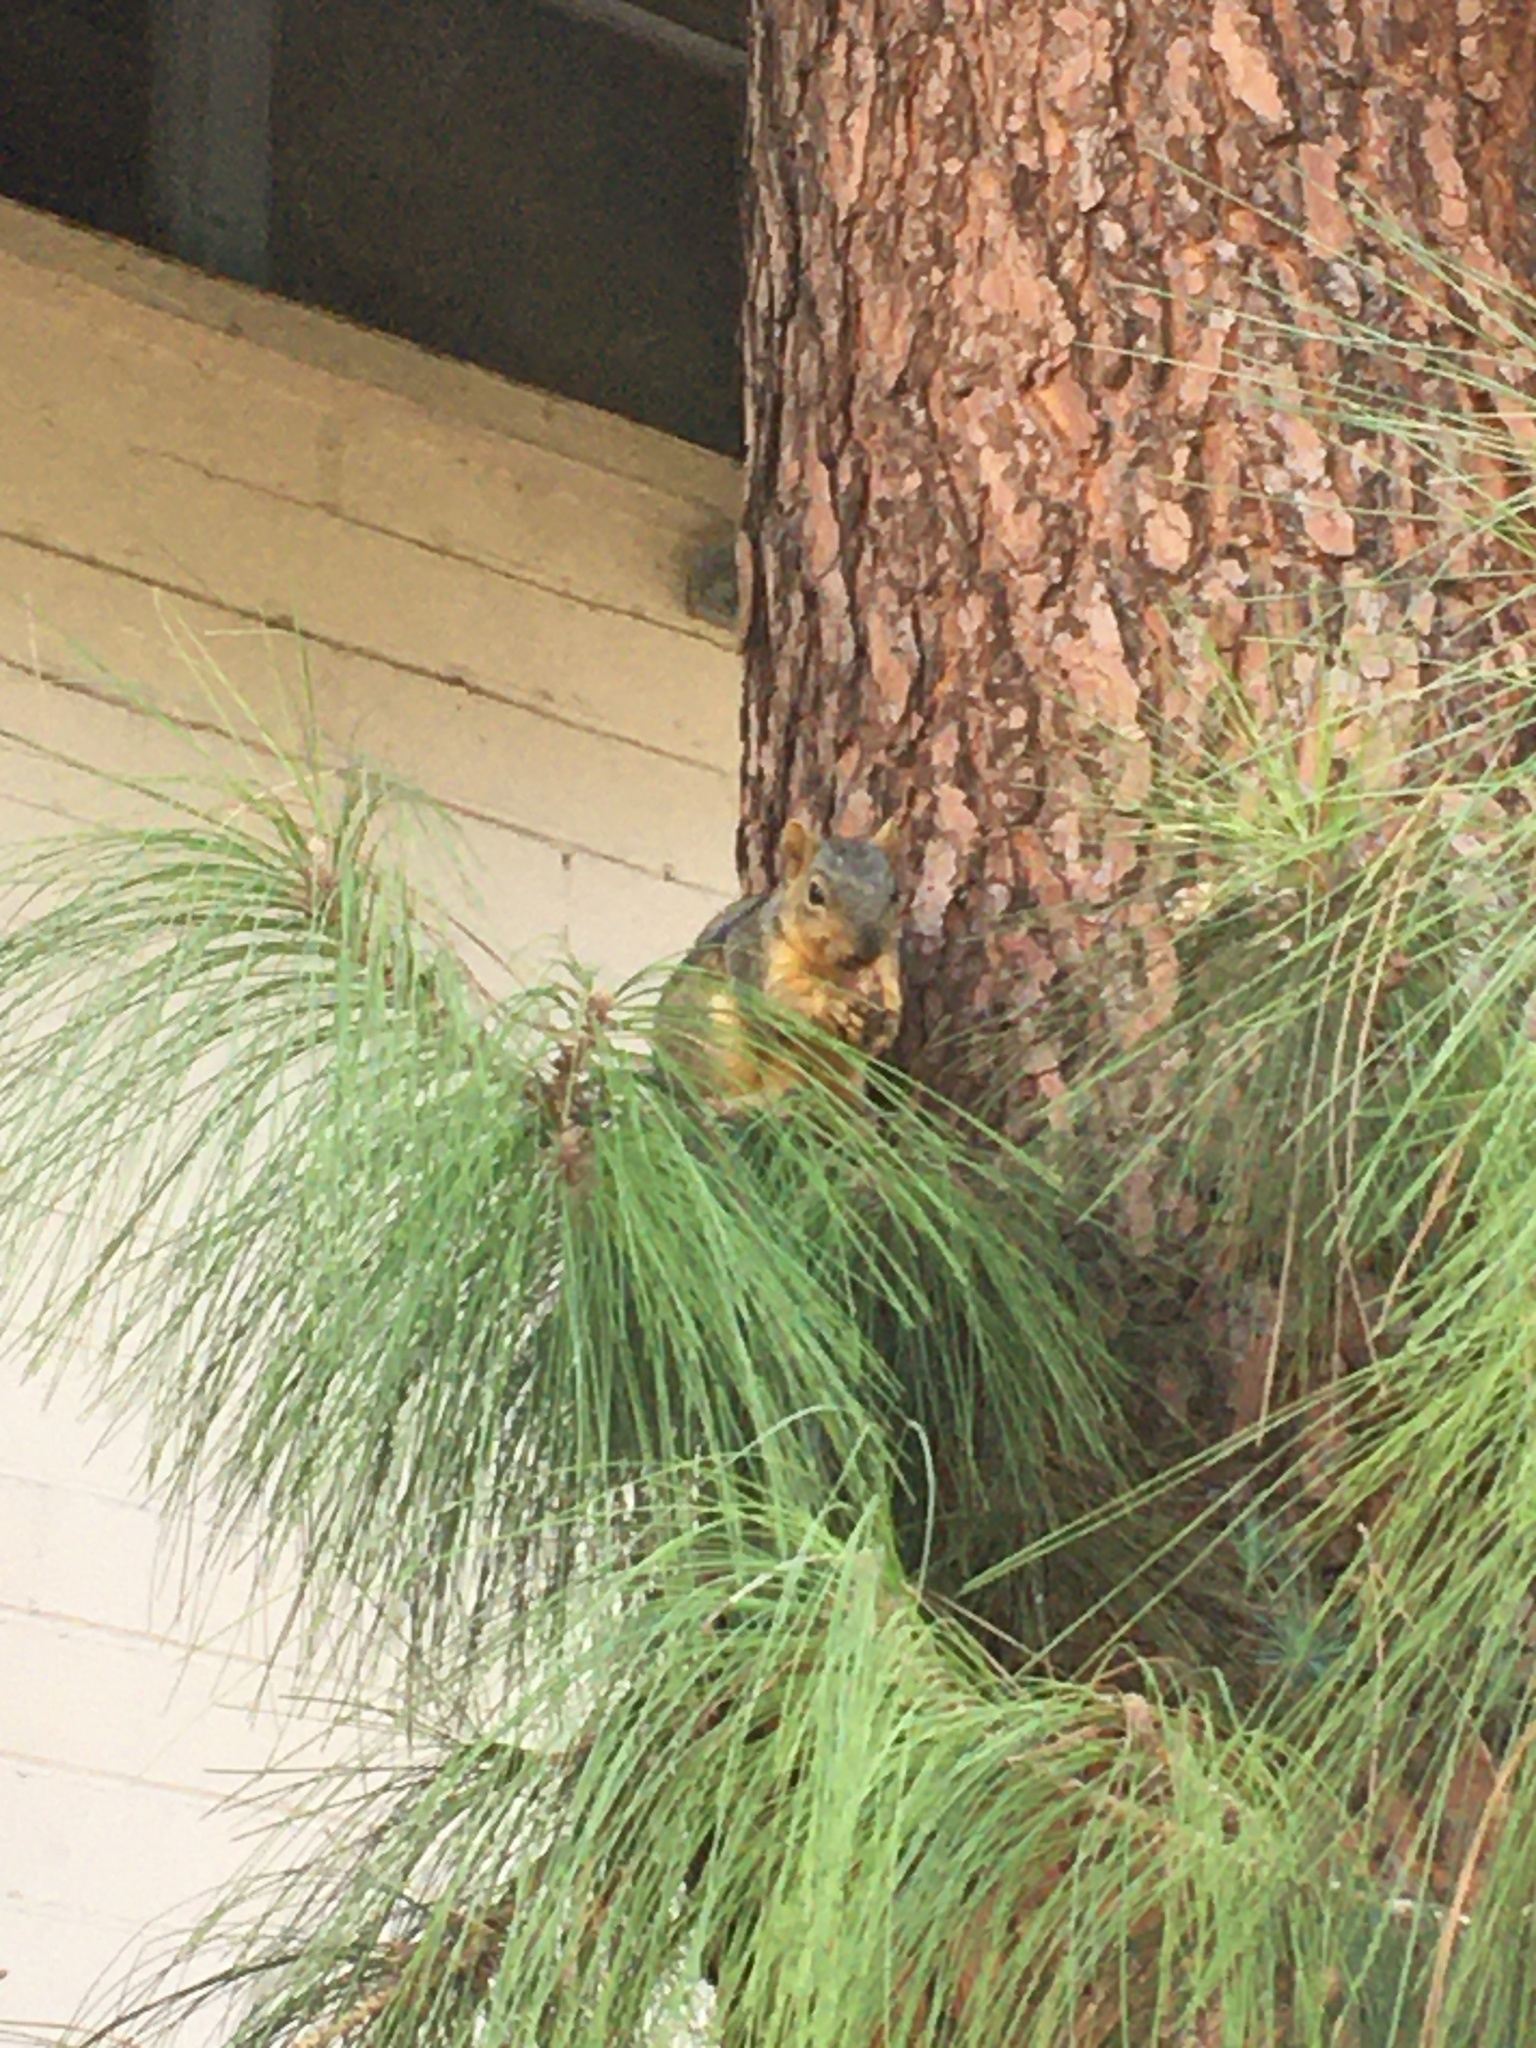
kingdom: Animalia
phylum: Chordata
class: Mammalia
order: Rodentia
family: Sciuridae
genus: Sciurus
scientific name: Sciurus niger
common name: Fox squirrel
